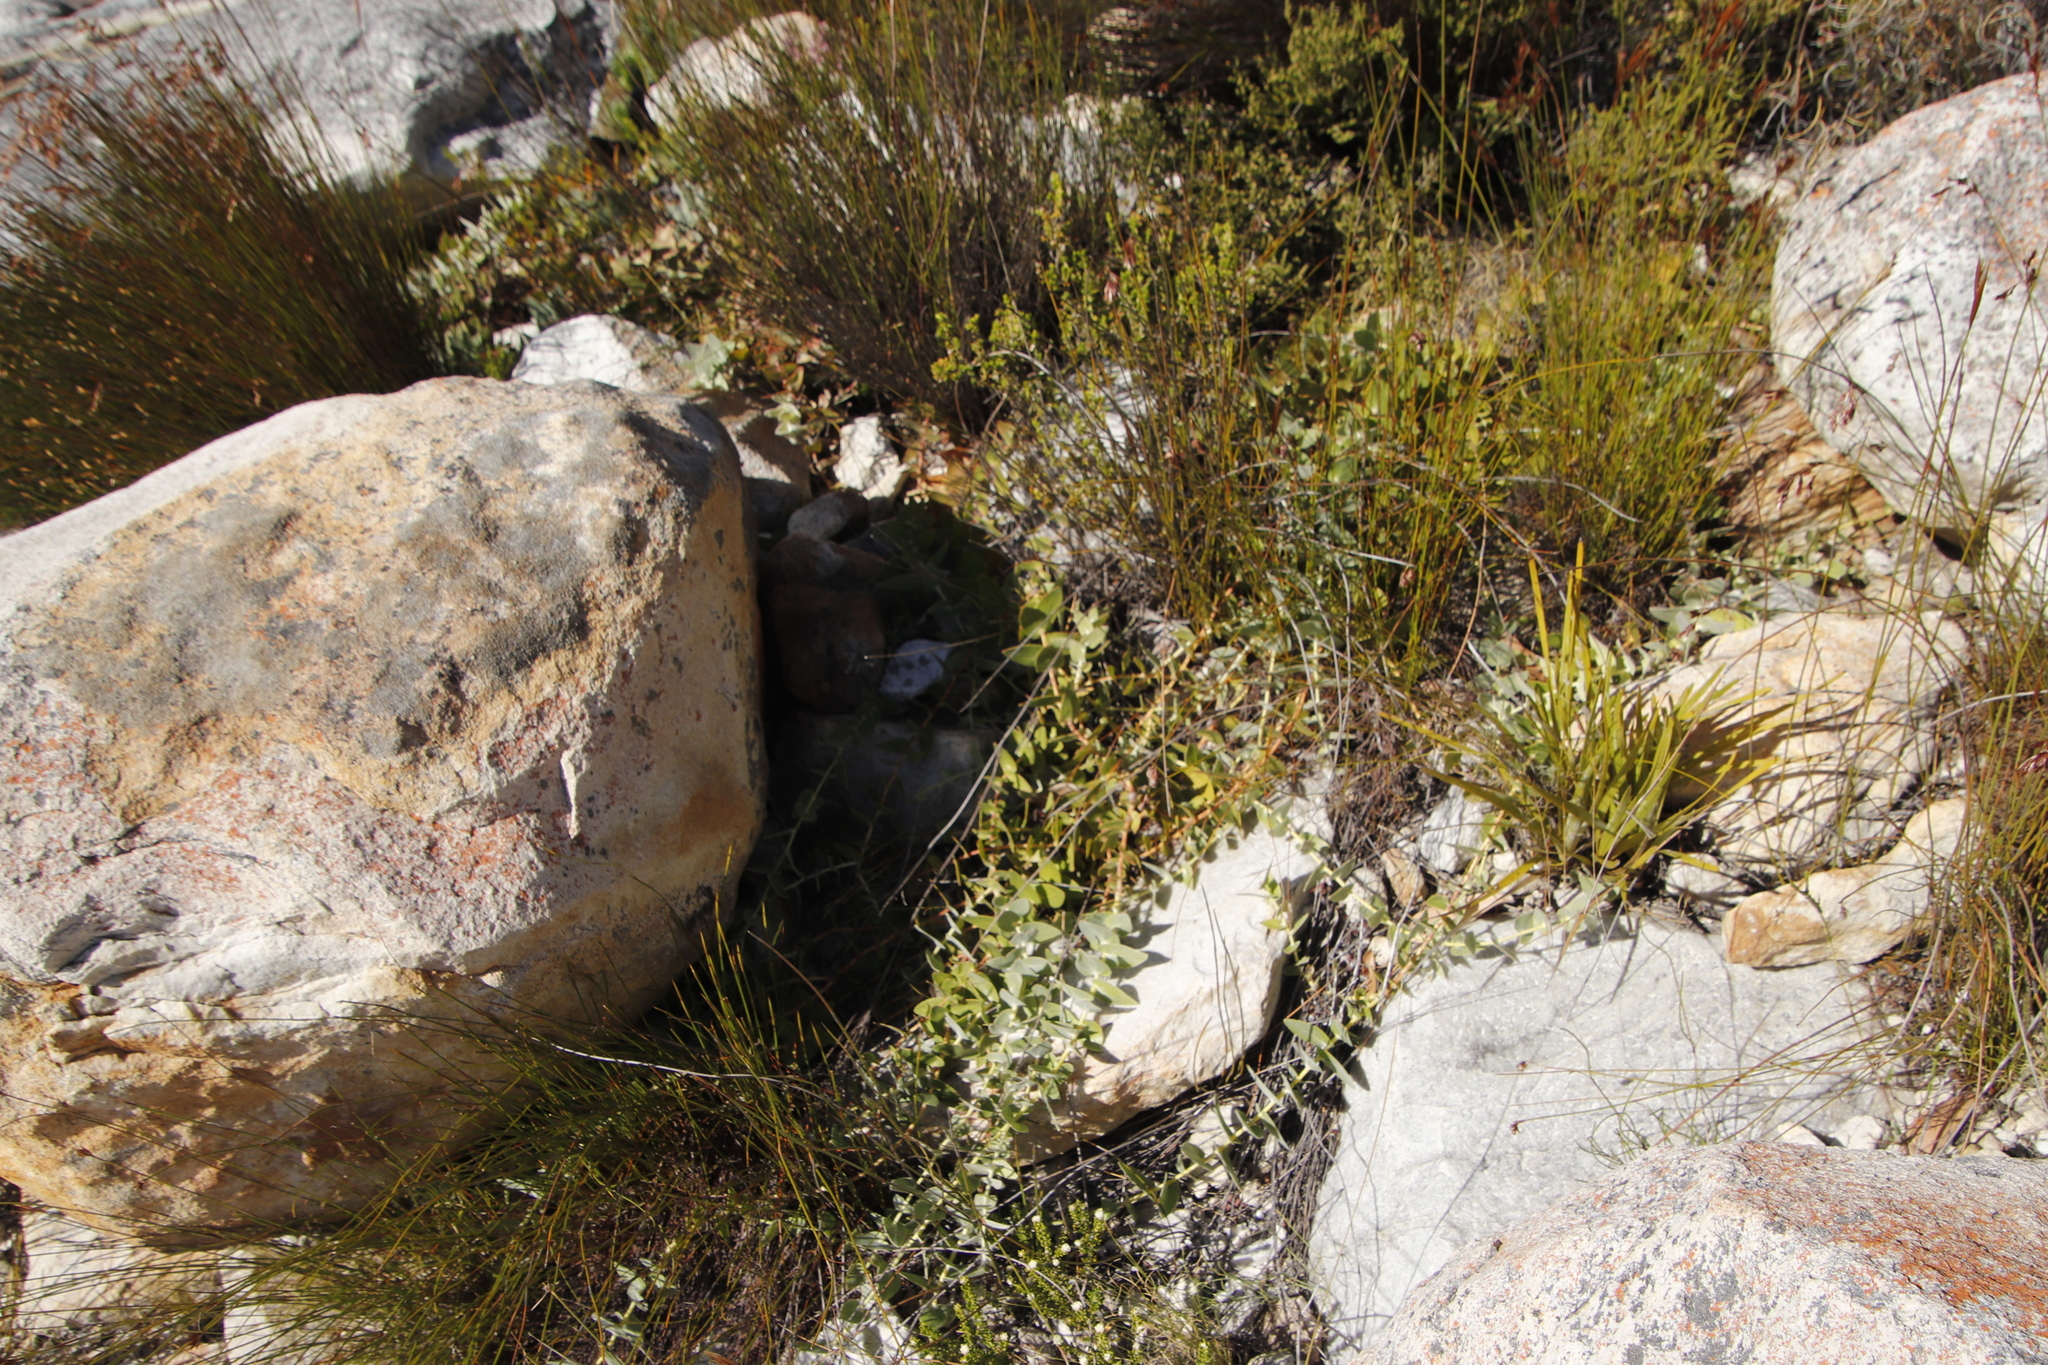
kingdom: Plantae
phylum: Tracheophyta
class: Magnoliopsida
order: Proteales
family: Proteaceae
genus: Leucospermum
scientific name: Leucospermum cordatum
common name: Heart-leaf pincushion
